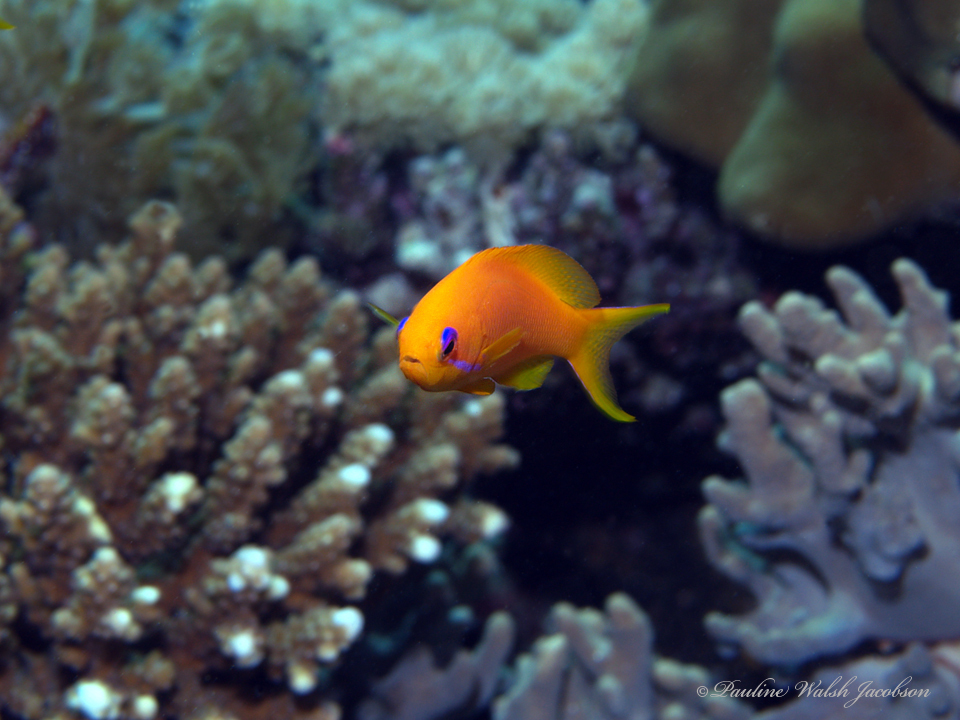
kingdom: Animalia
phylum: Chordata
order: Perciformes
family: Serranidae
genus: Pseudanthias
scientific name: Pseudanthias squamipinnis
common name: Scalefin anthias
